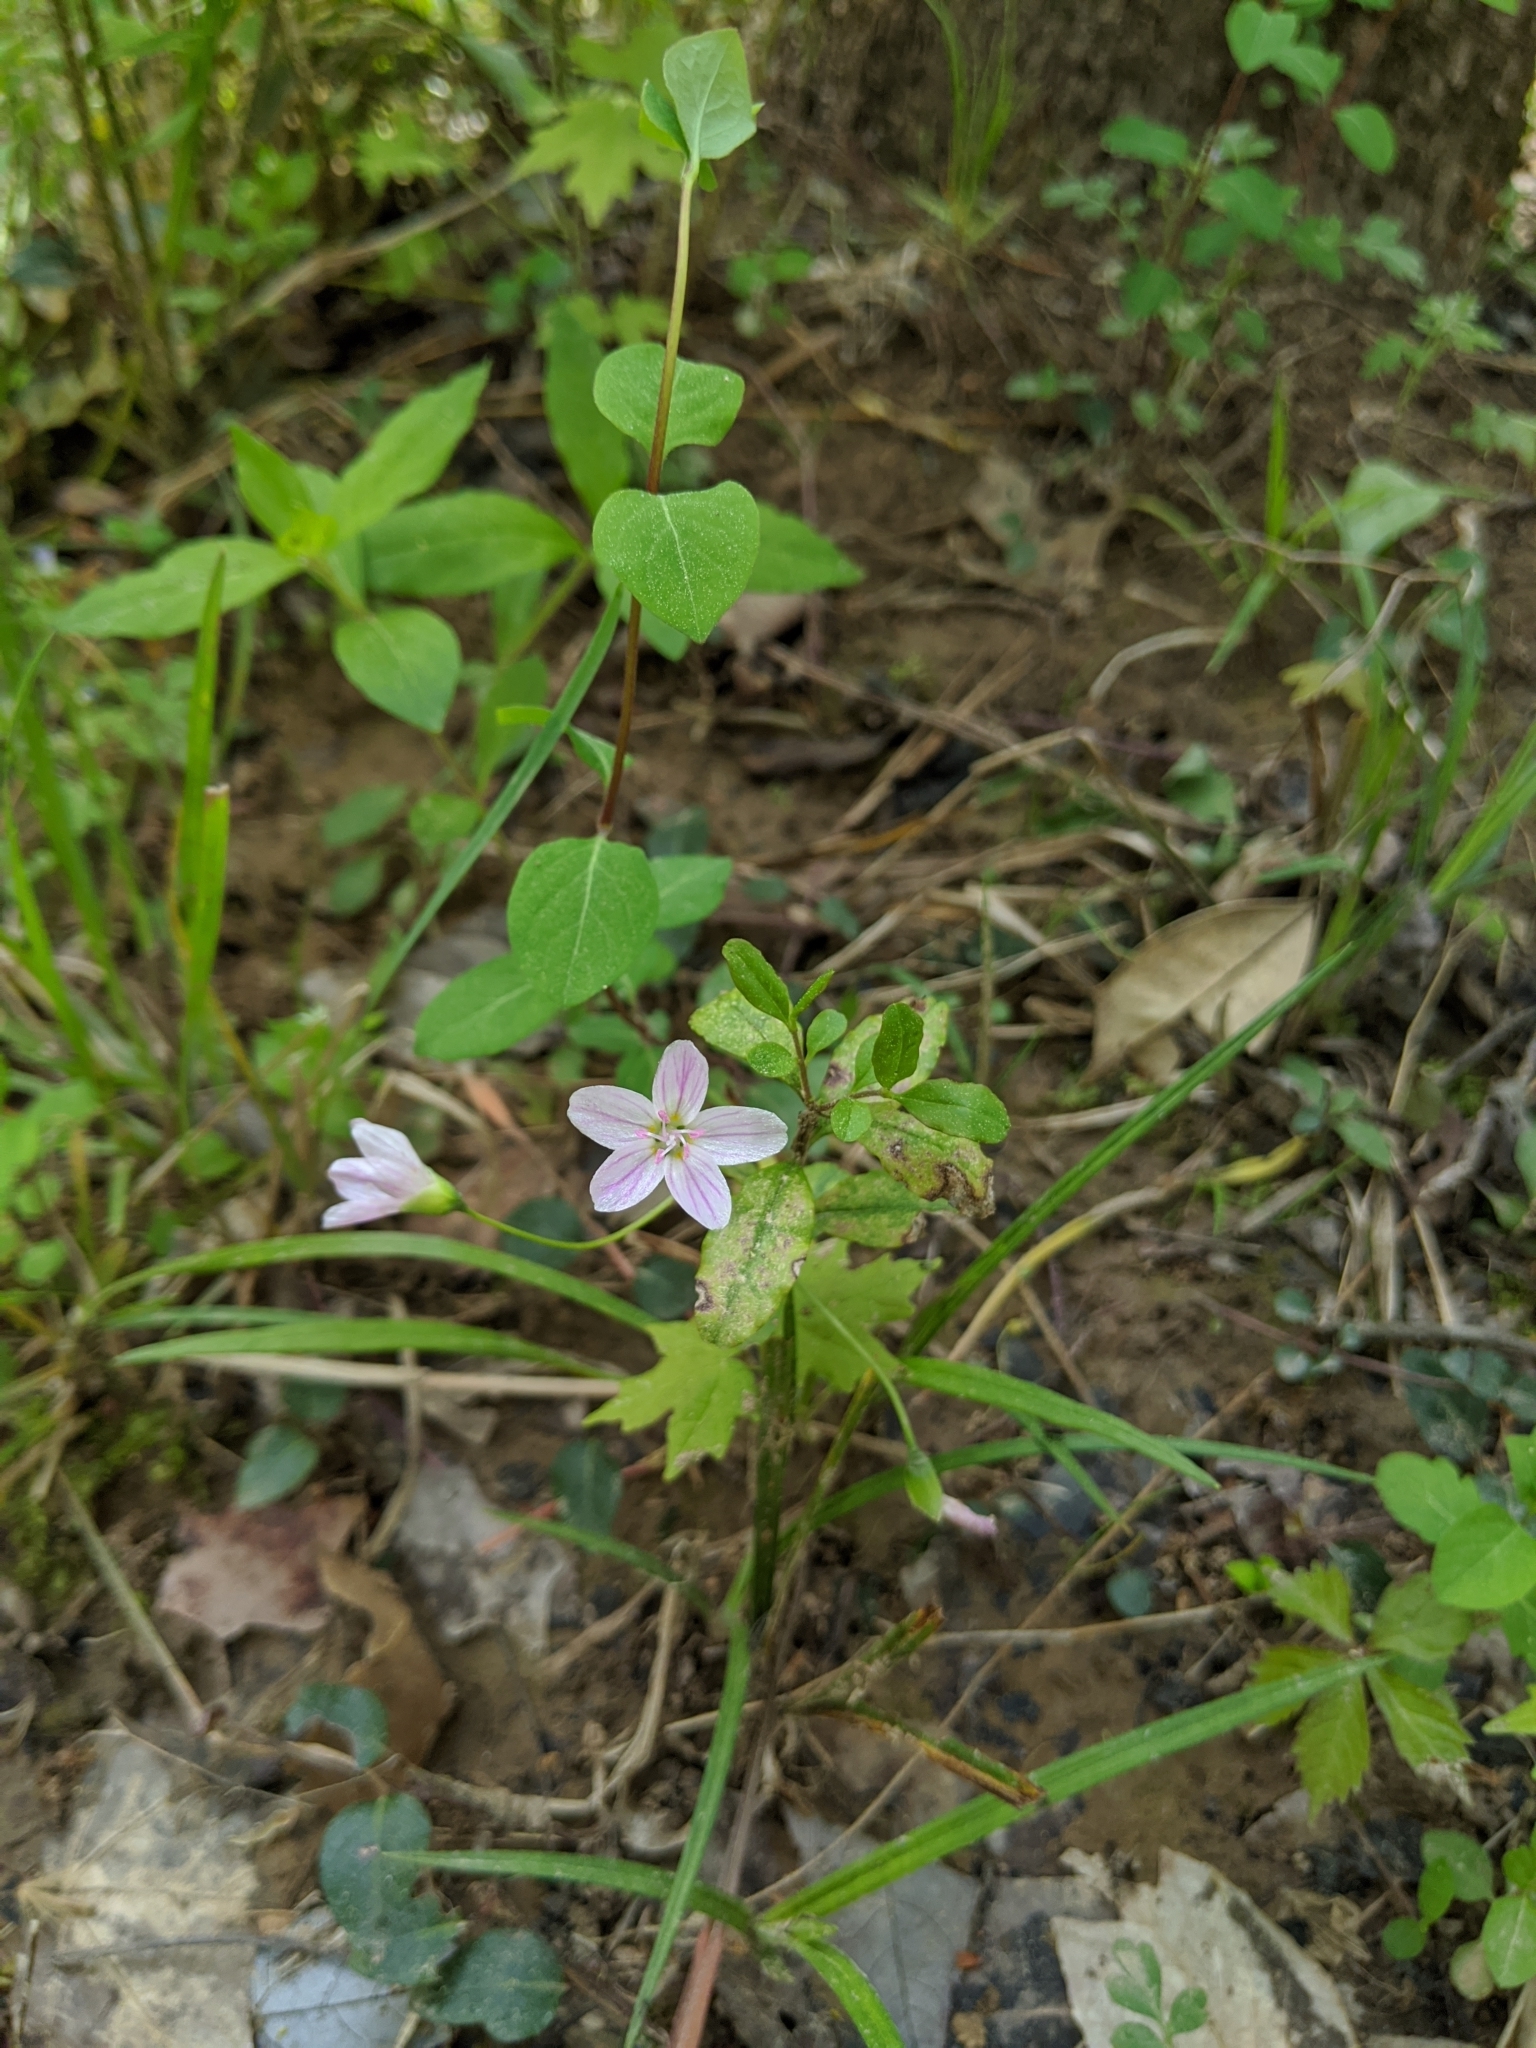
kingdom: Plantae
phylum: Tracheophyta
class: Magnoliopsida
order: Caryophyllales
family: Montiaceae
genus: Claytonia
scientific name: Claytonia virginica
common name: Virginia springbeauty
